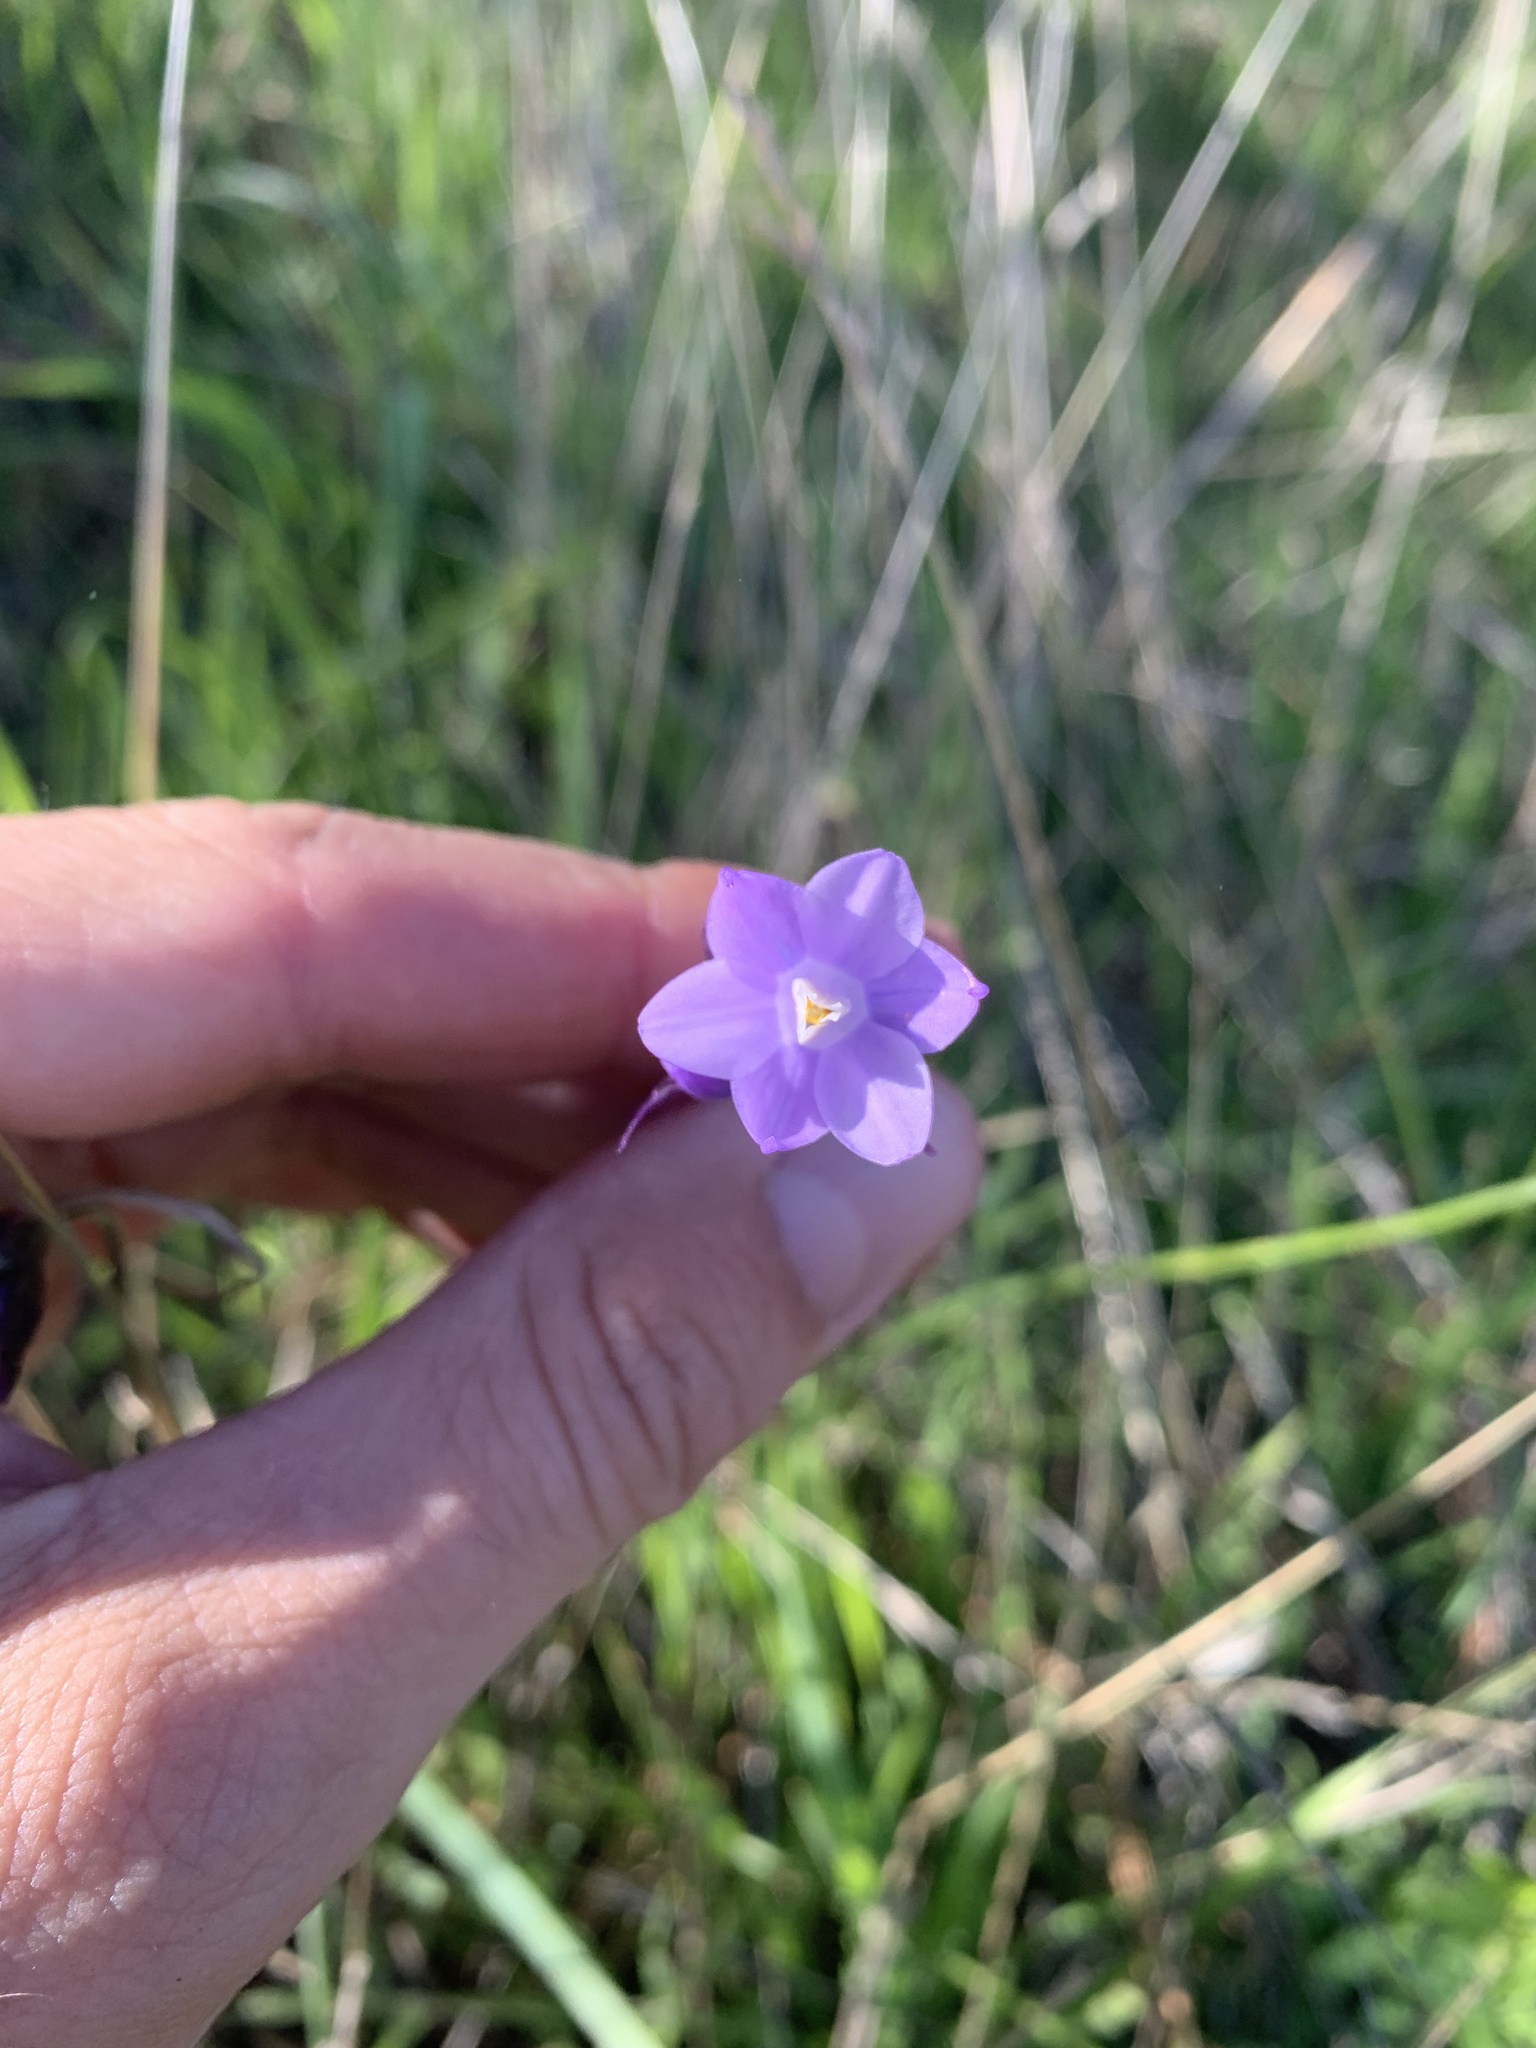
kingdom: Plantae
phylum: Tracheophyta
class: Liliopsida
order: Asparagales
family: Asparagaceae
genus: Dipterostemon
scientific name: Dipterostemon capitatus
